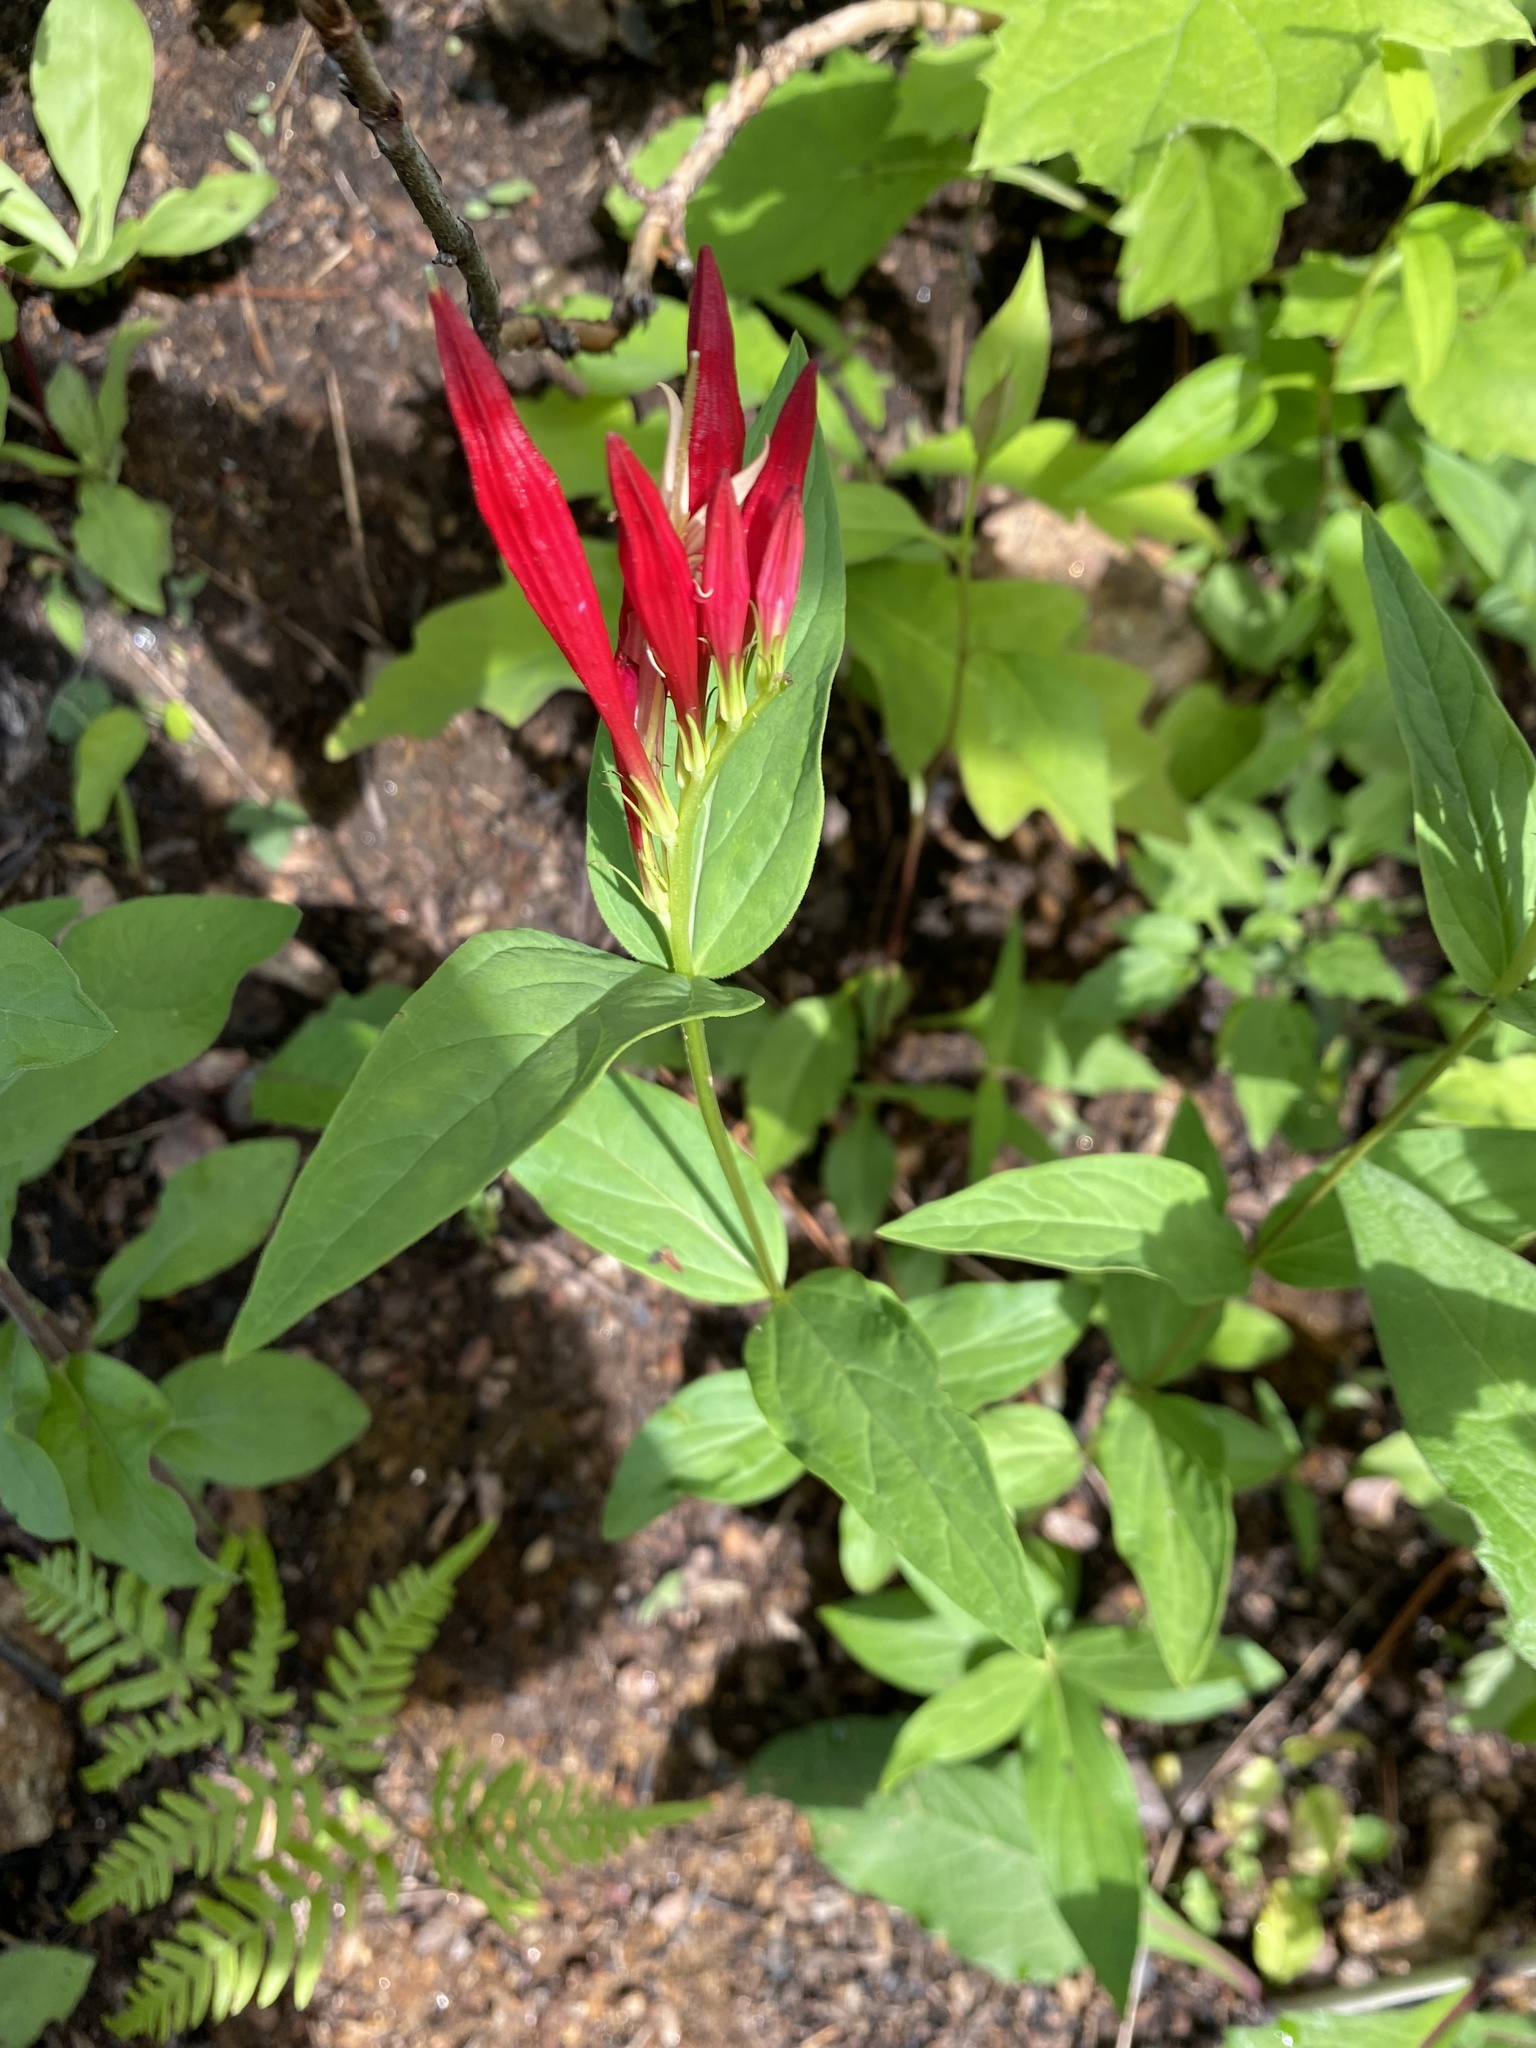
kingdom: Plantae
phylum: Tracheophyta
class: Magnoliopsida
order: Gentianales
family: Loganiaceae
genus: Spigelia
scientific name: Spigelia marilandica
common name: Indian-pink
